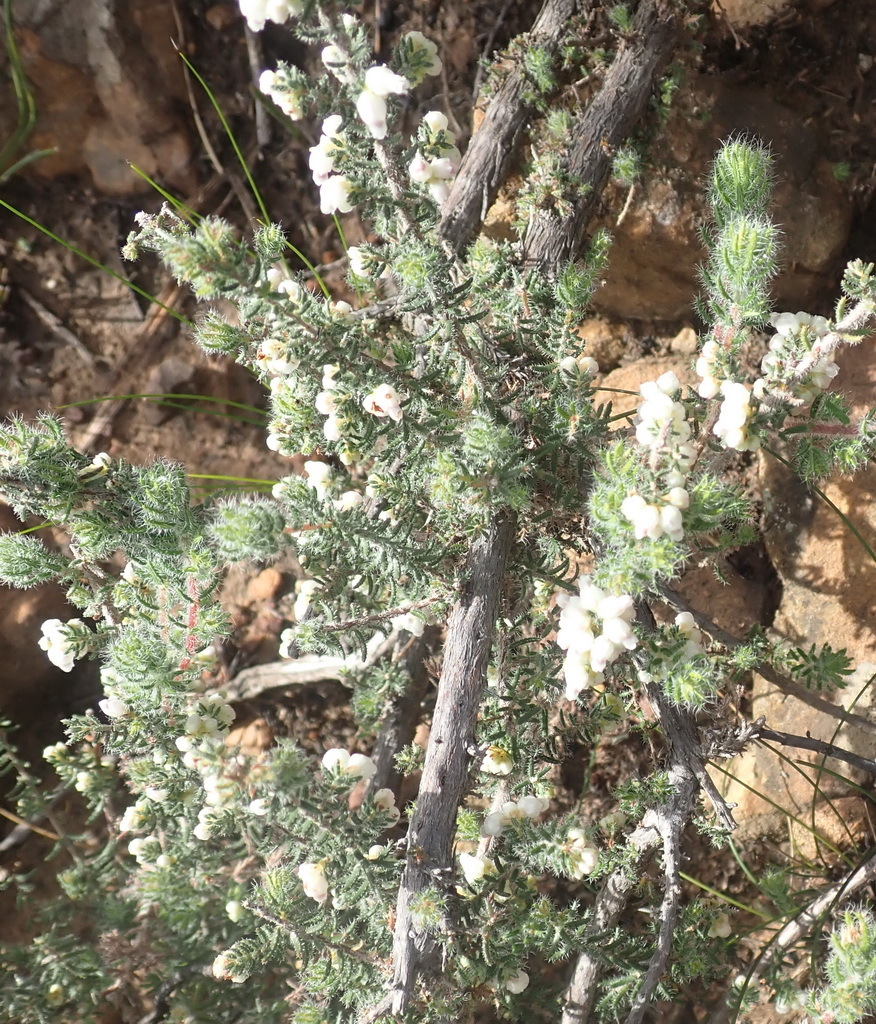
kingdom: Plantae
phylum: Tracheophyta
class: Magnoliopsida
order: Ericales
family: Ericaceae
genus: Erica
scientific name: Erica totta
